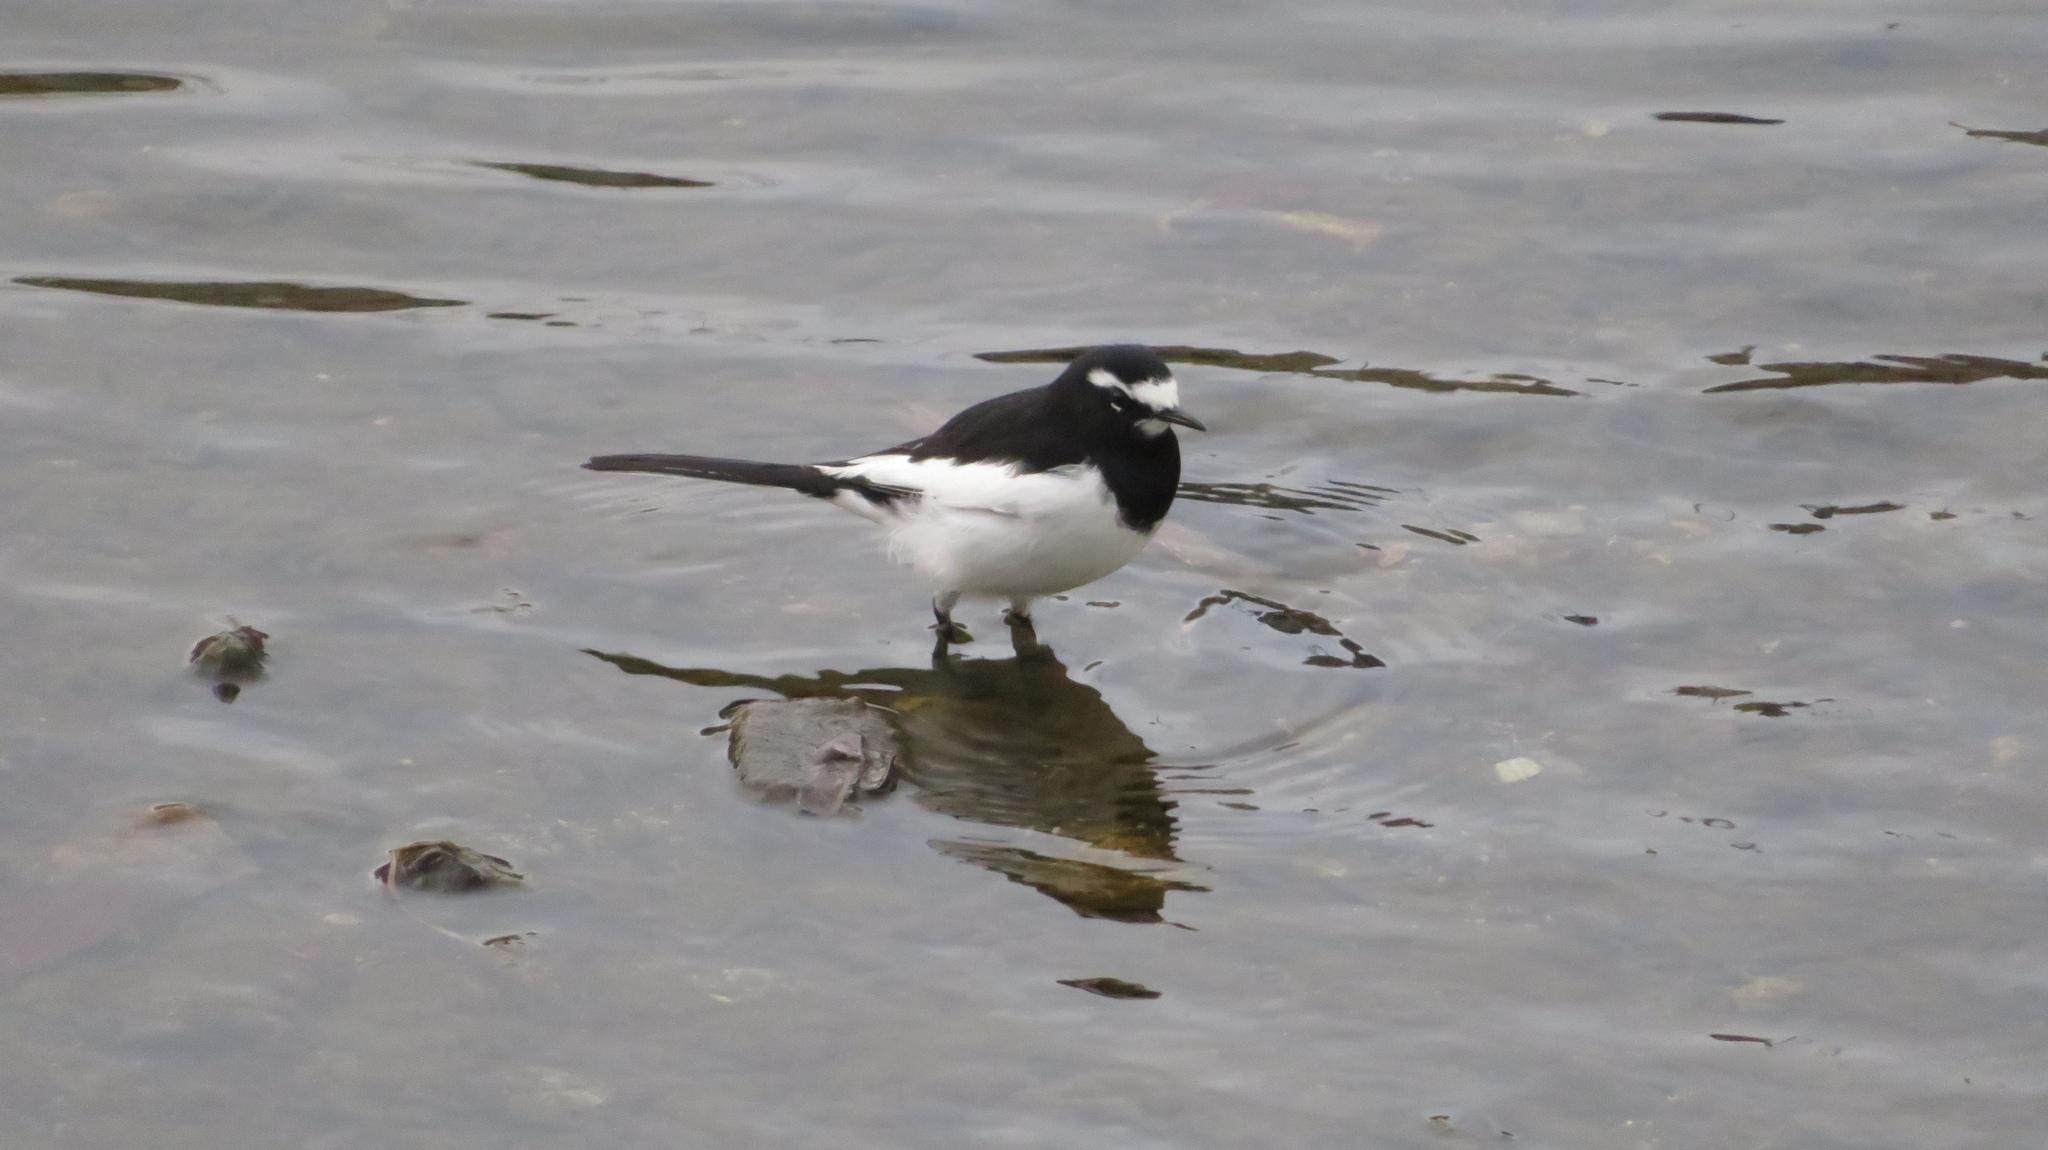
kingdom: Animalia
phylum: Chordata
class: Aves
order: Passeriformes
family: Motacillidae
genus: Motacilla
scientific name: Motacilla grandis
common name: Japanese wagtail
